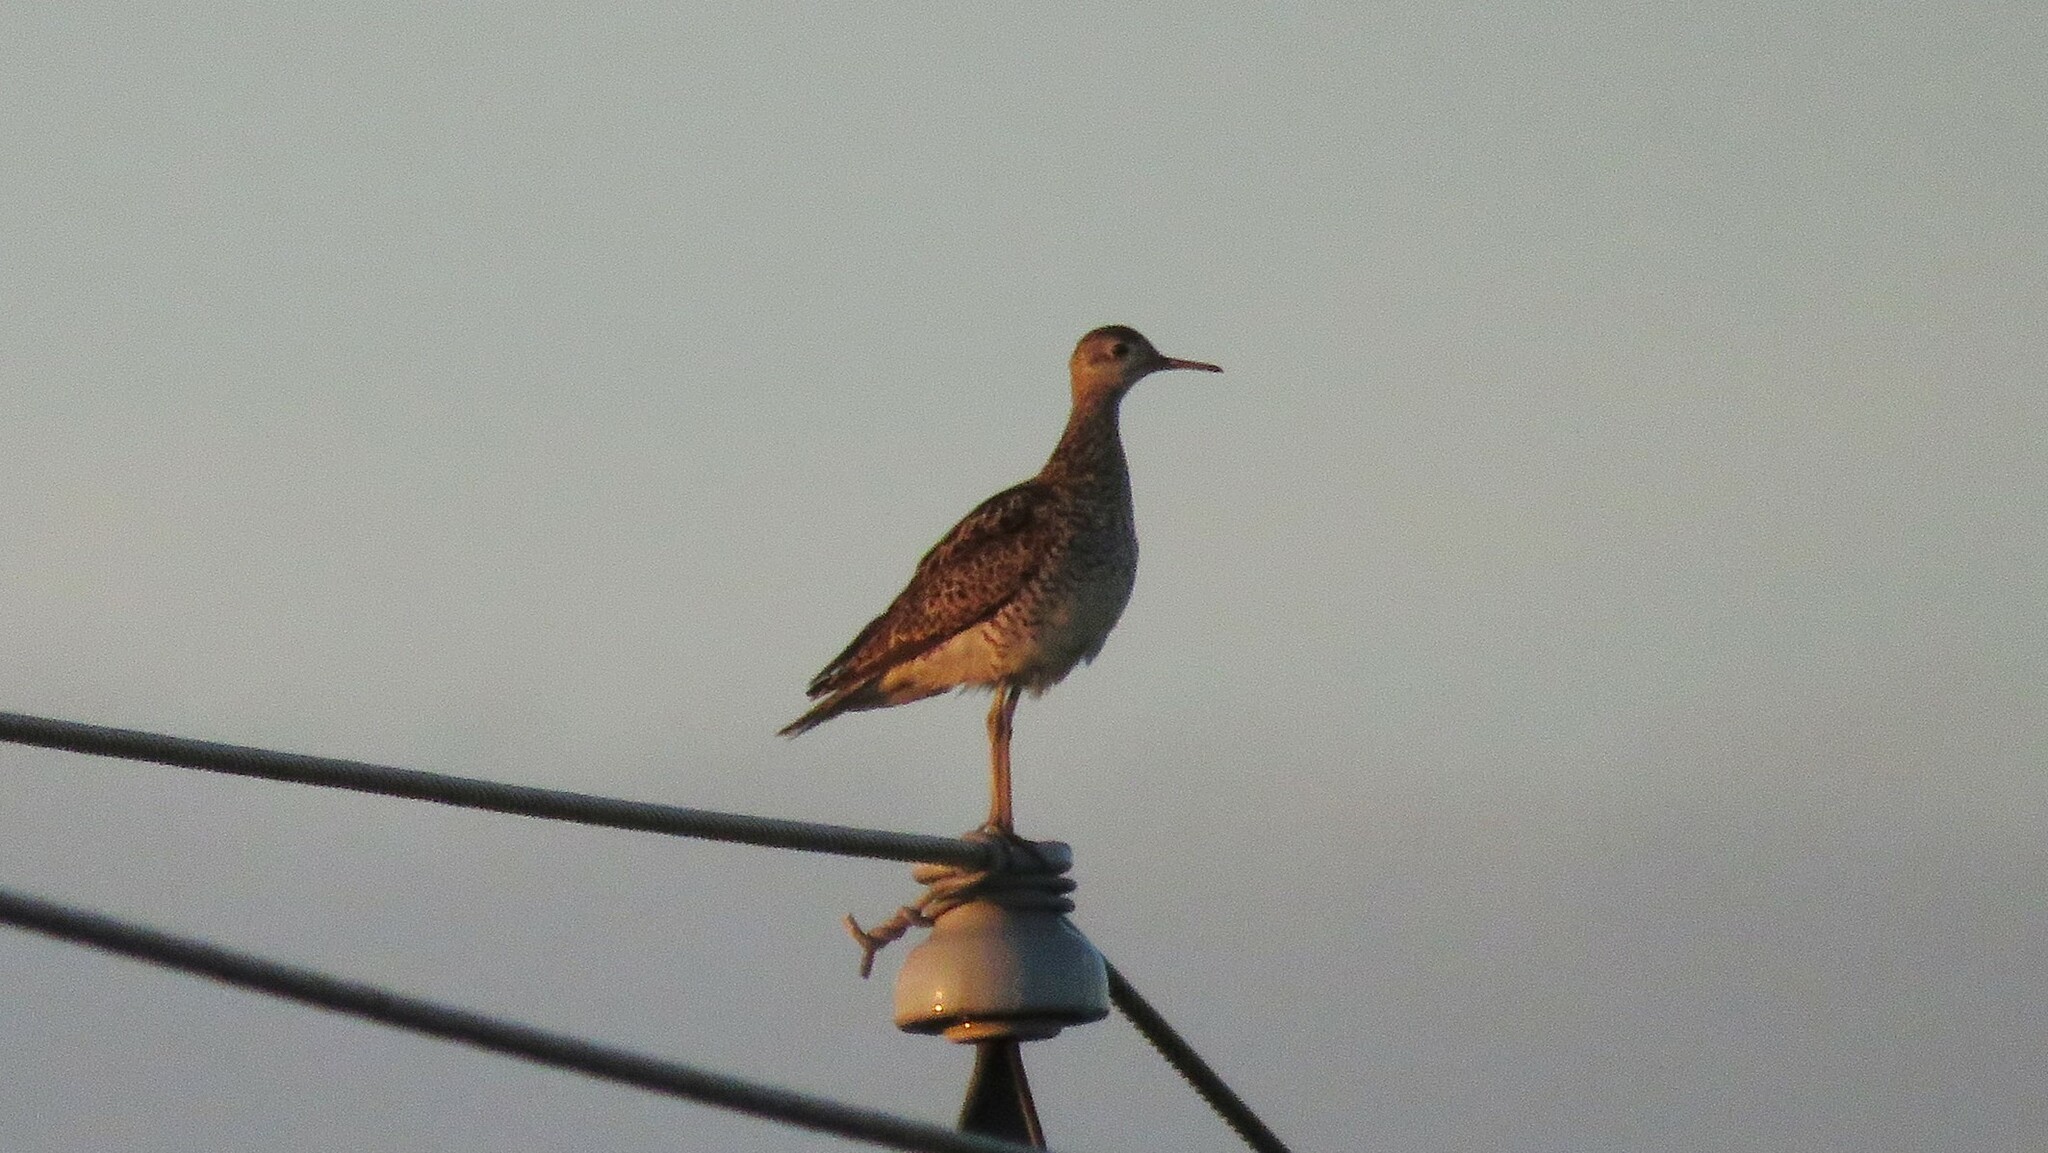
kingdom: Animalia
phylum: Chordata
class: Aves
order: Charadriiformes
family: Scolopacidae
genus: Bartramia
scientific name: Bartramia longicauda
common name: Upland sandpiper
